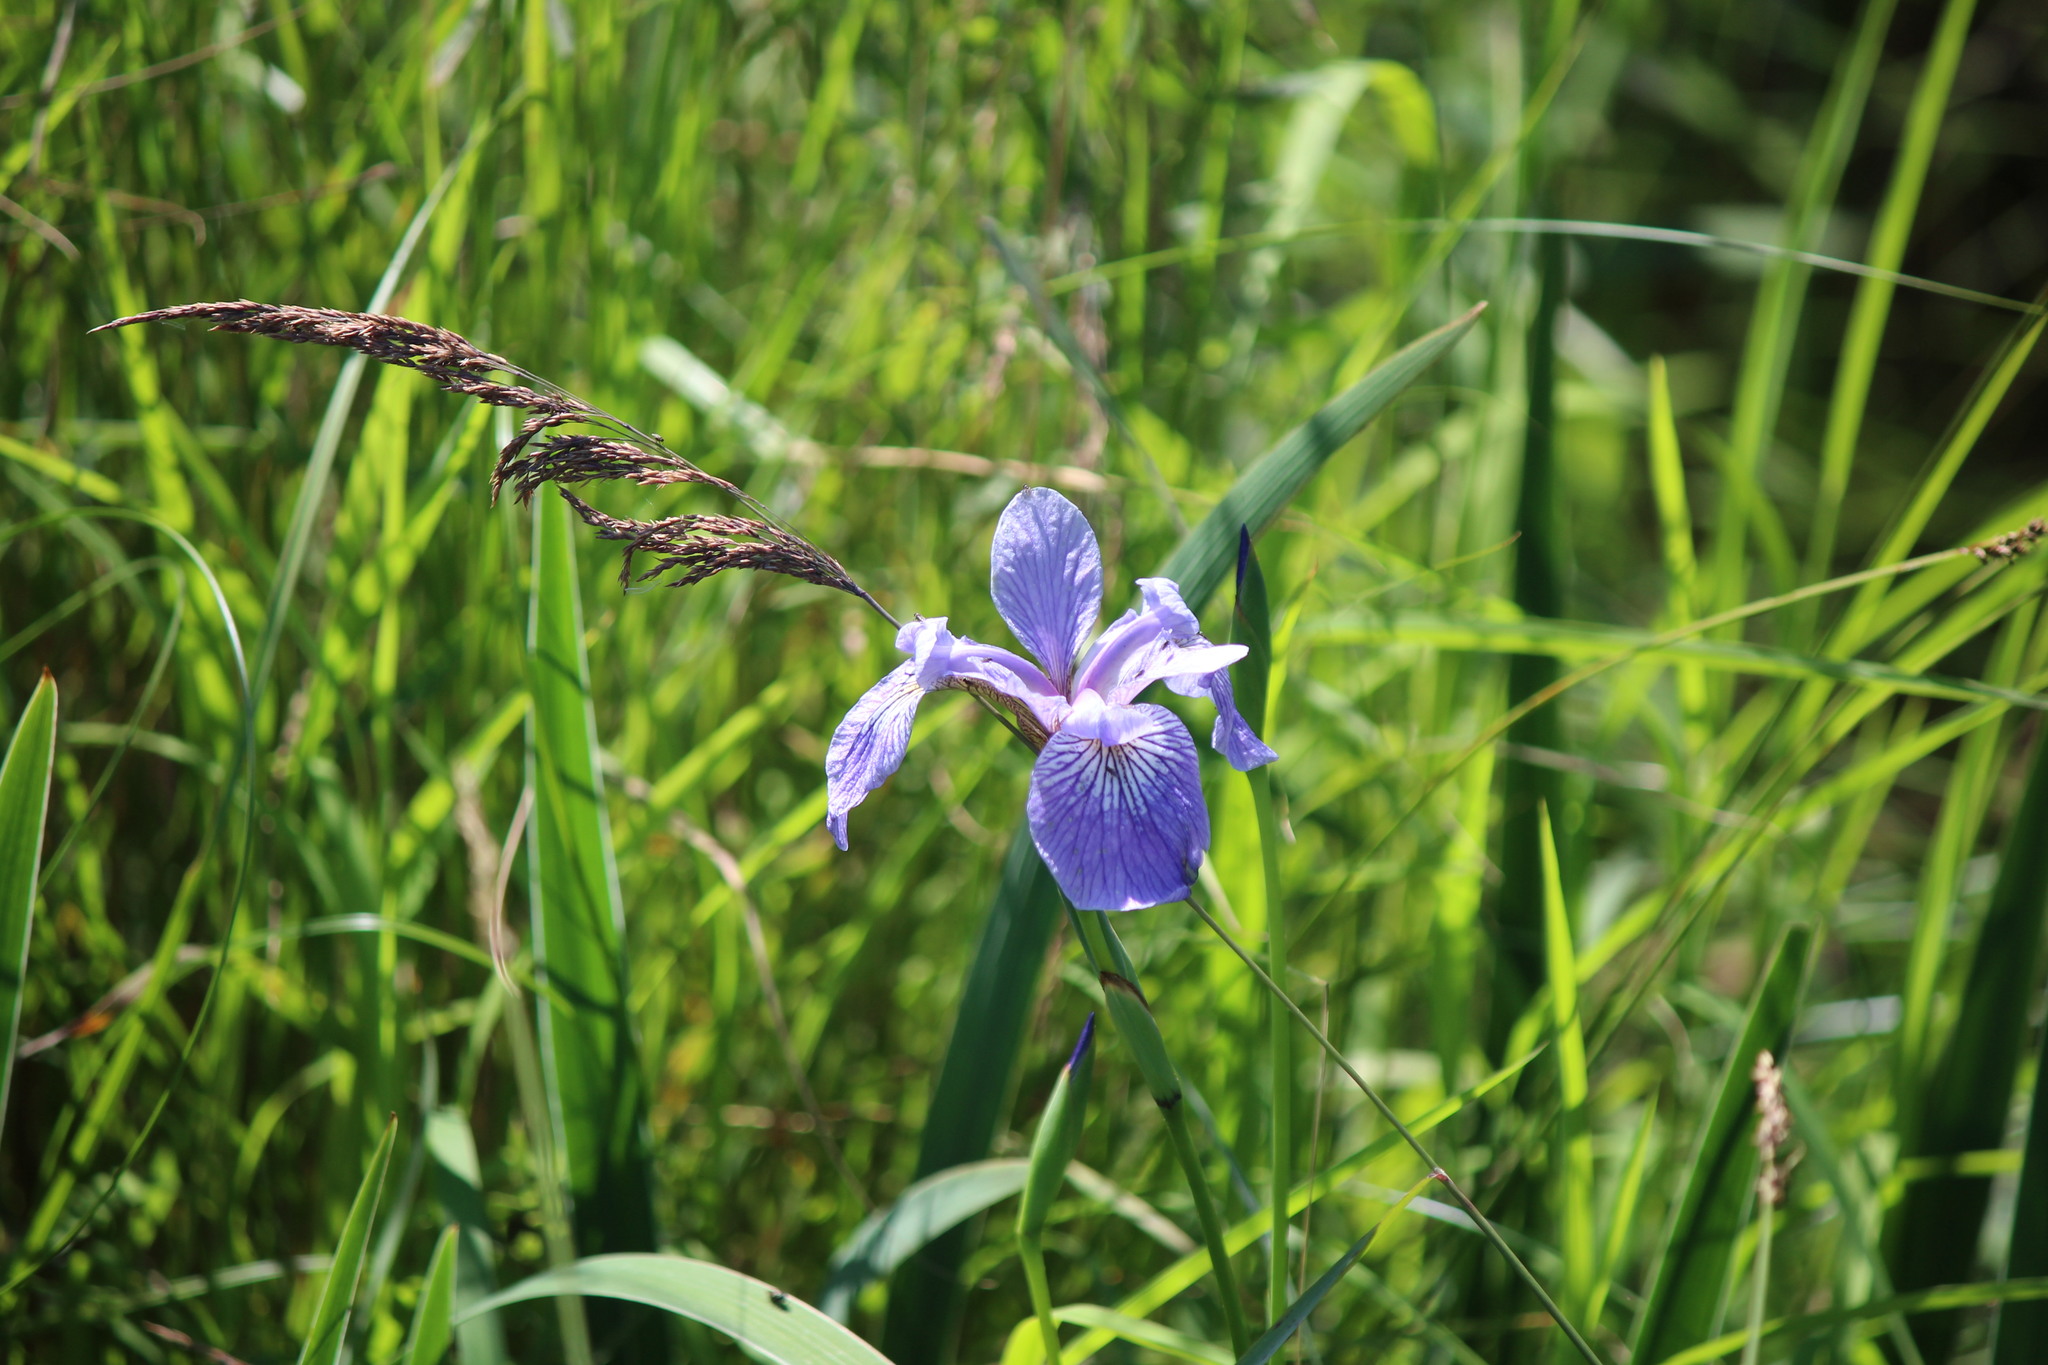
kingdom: Plantae
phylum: Tracheophyta
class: Liliopsida
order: Asparagales
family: Iridaceae
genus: Iris
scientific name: Iris versicolor
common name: Purple iris
